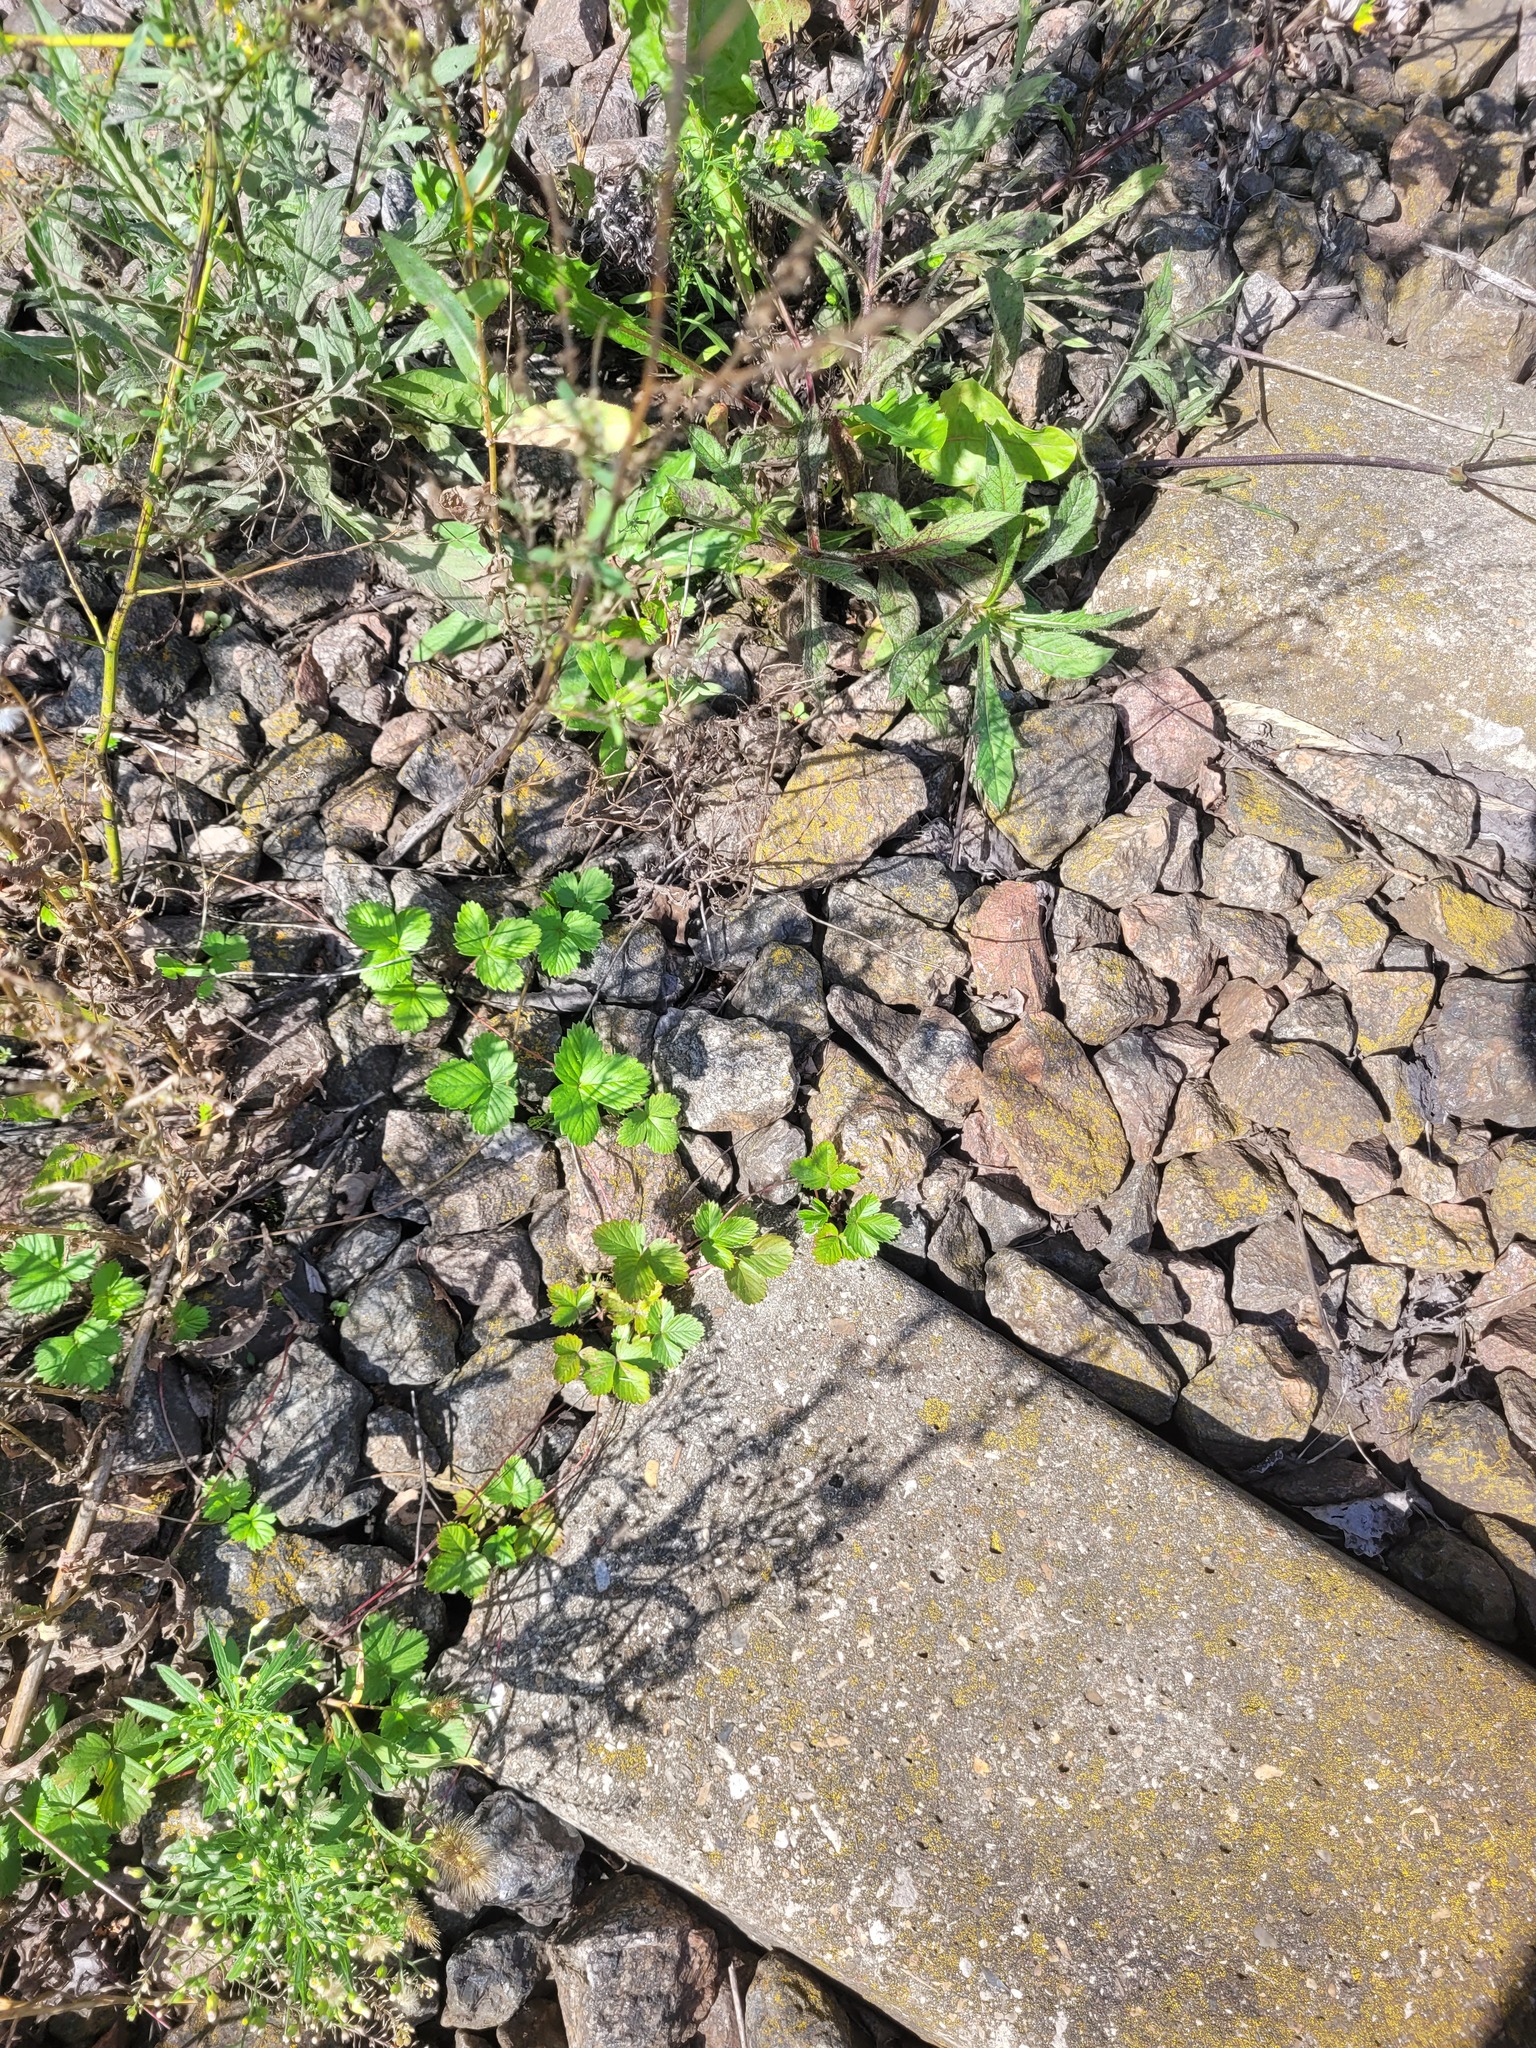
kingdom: Plantae
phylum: Tracheophyta
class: Magnoliopsida
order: Rosales
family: Rosaceae
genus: Fragaria
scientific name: Fragaria vesca
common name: Wild strawberry
